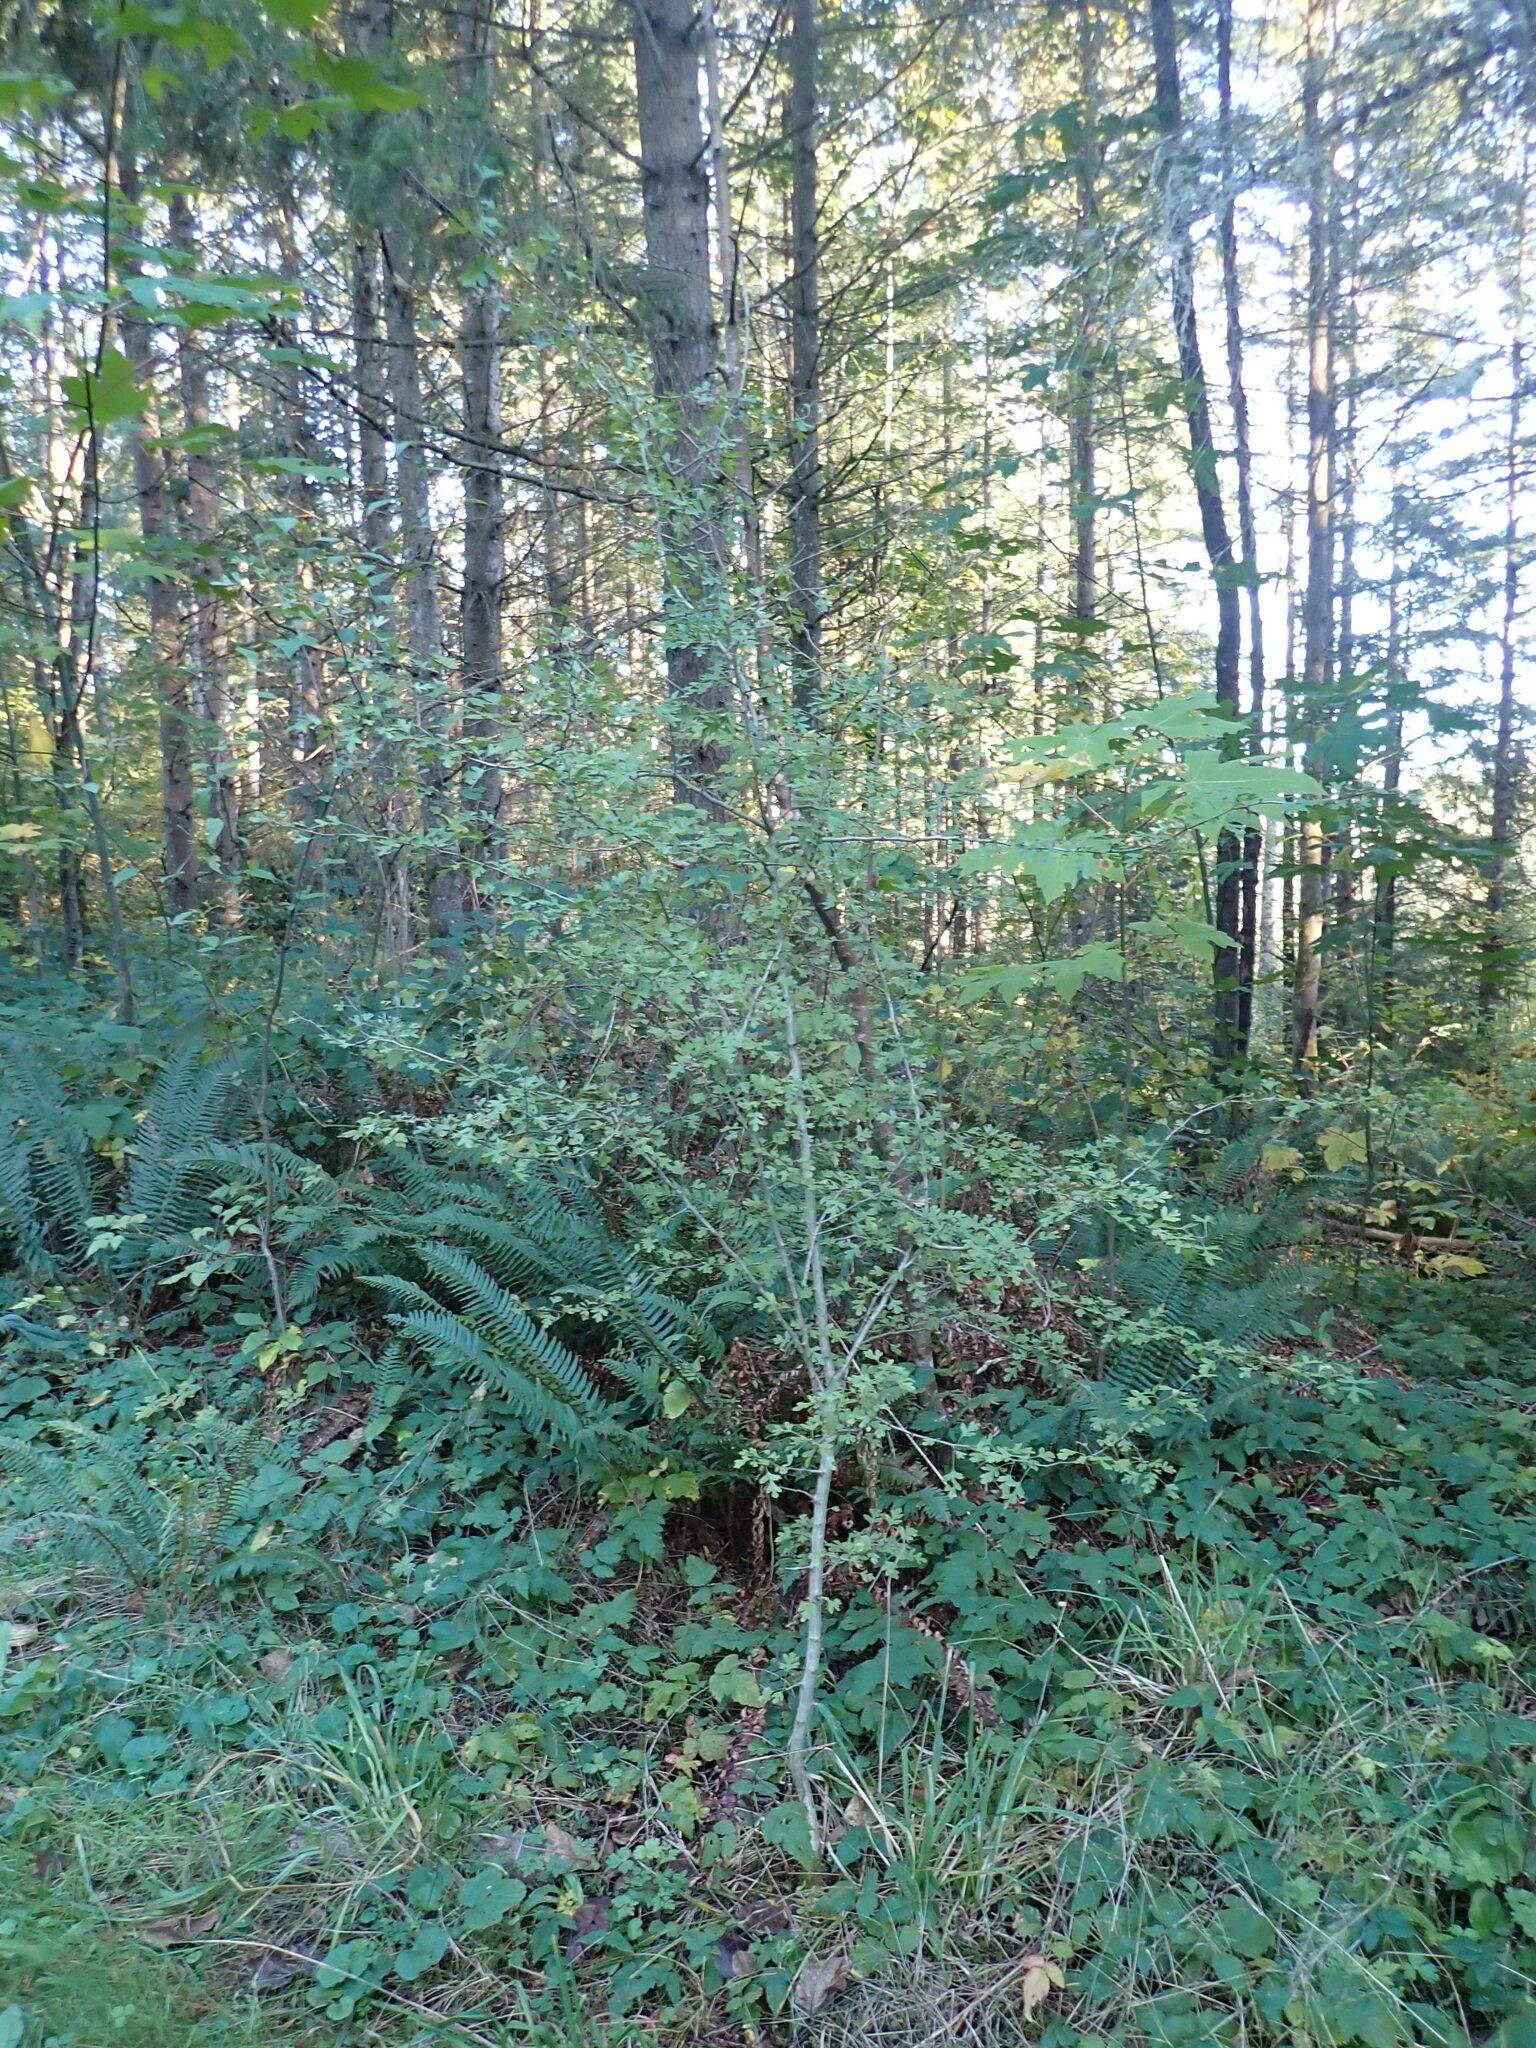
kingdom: Plantae
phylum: Tracheophyta
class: Magnoliopsida
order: Rosales
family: Rosaceae
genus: Crataegus
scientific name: Crataegus monogyna
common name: Hawthorn
